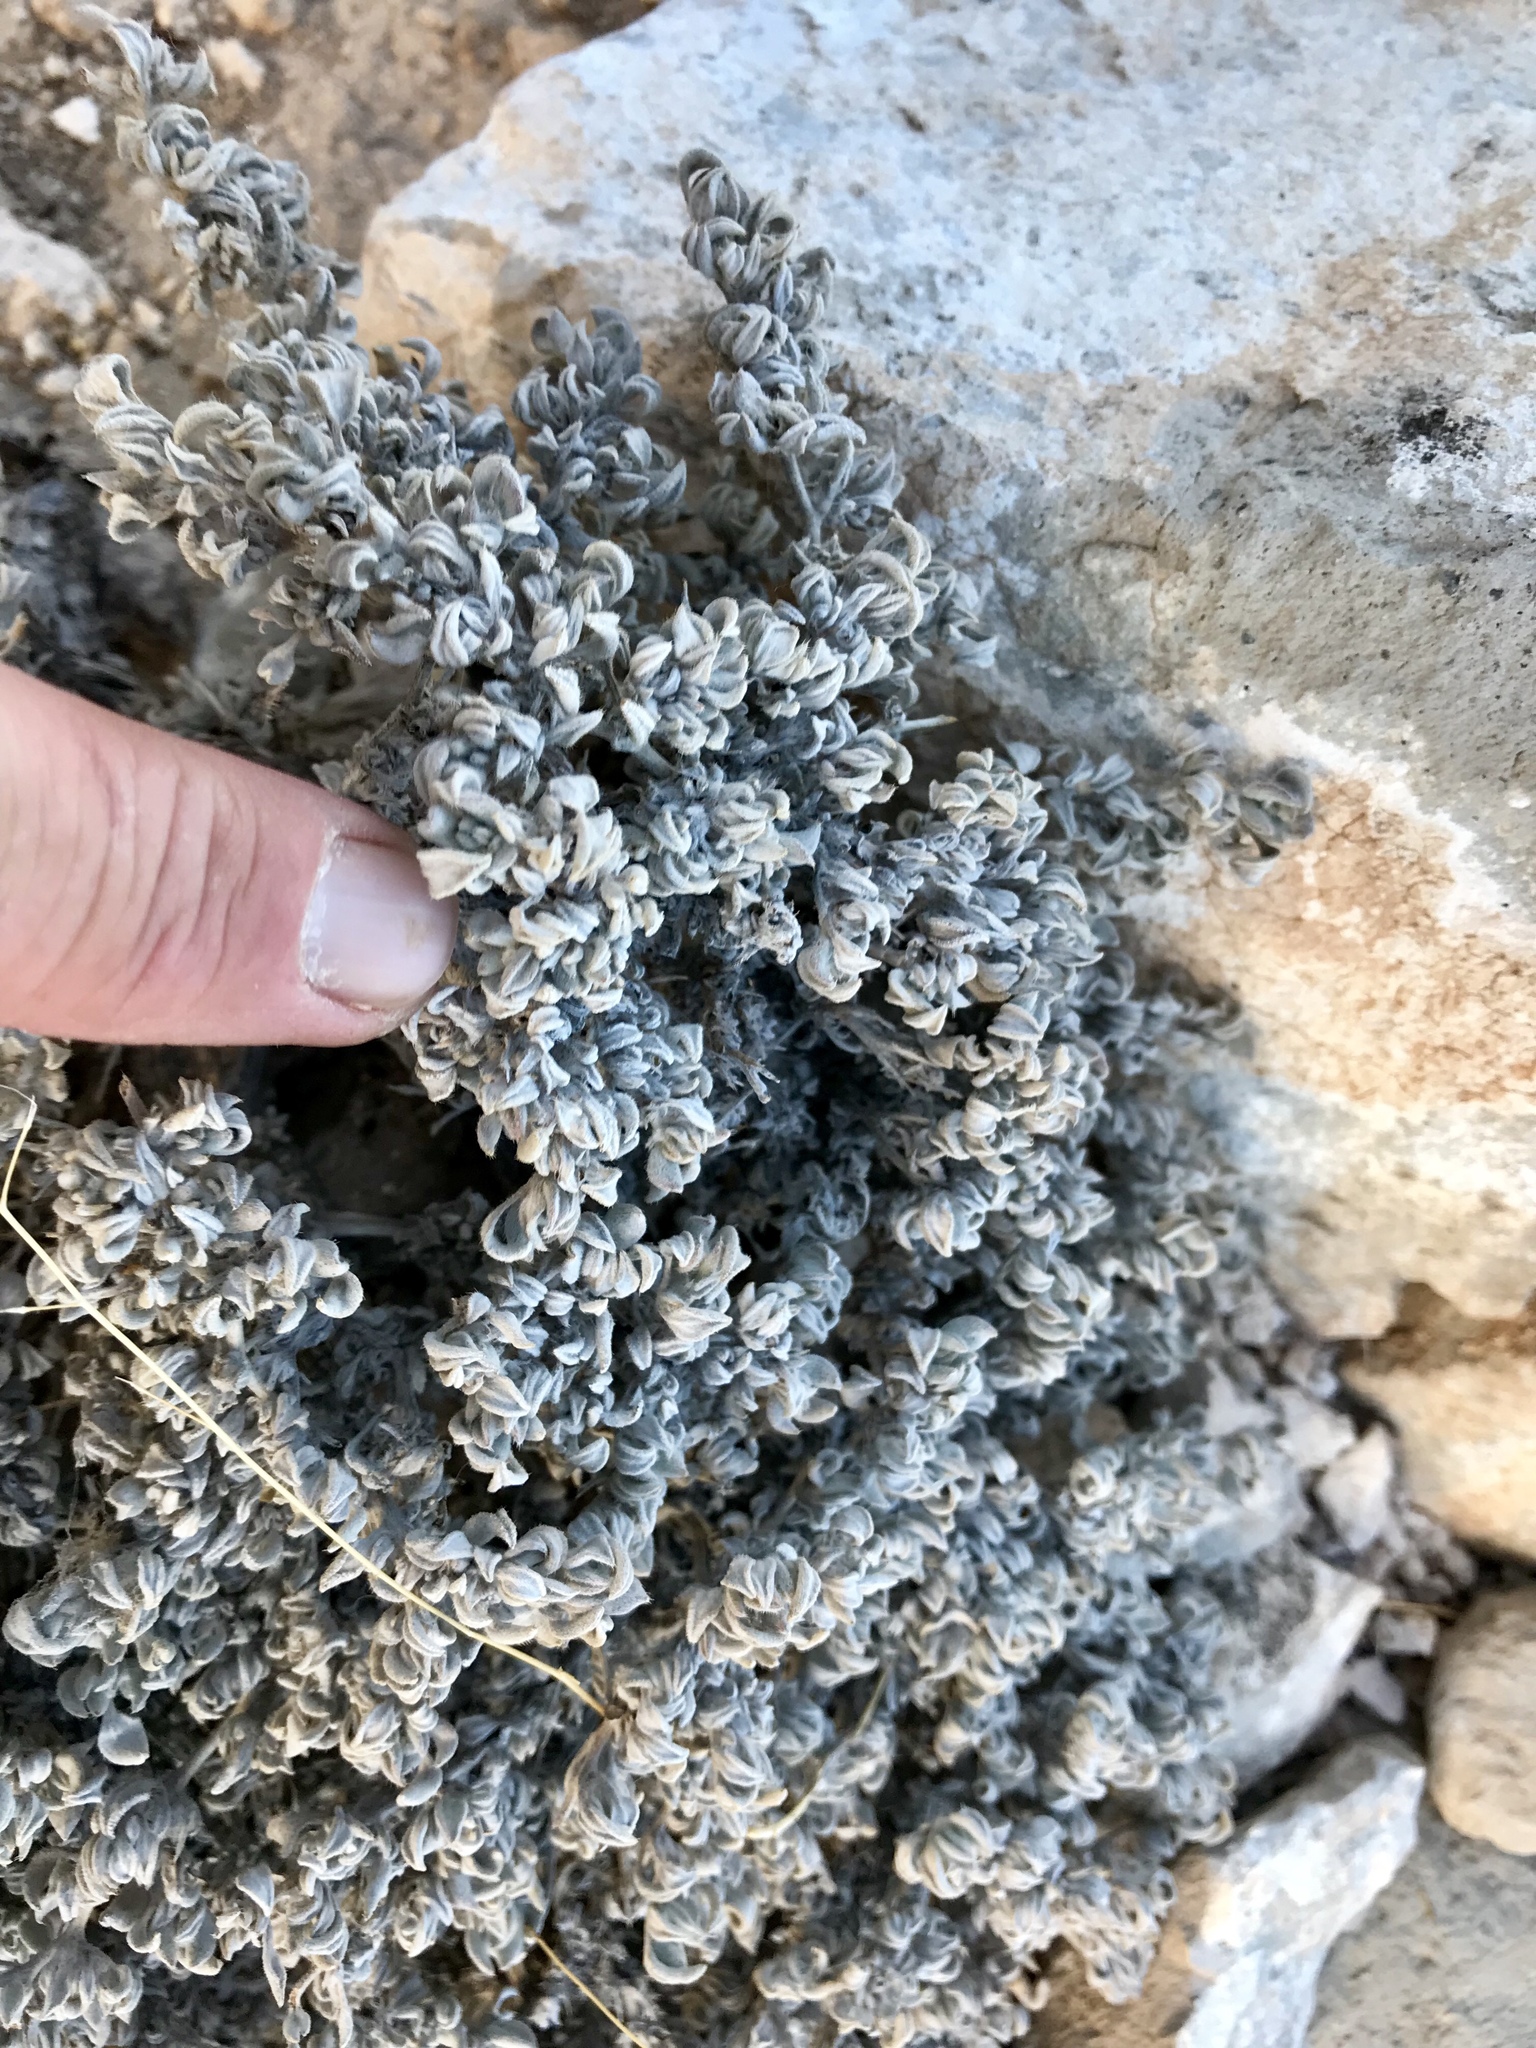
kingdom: Plantae
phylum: Tracheophyta
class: Magnoliopsida
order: Boraginales
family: Ehretiaceae
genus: Tiquilia
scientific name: Tiquilia canescens
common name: Hairy tiquilia
